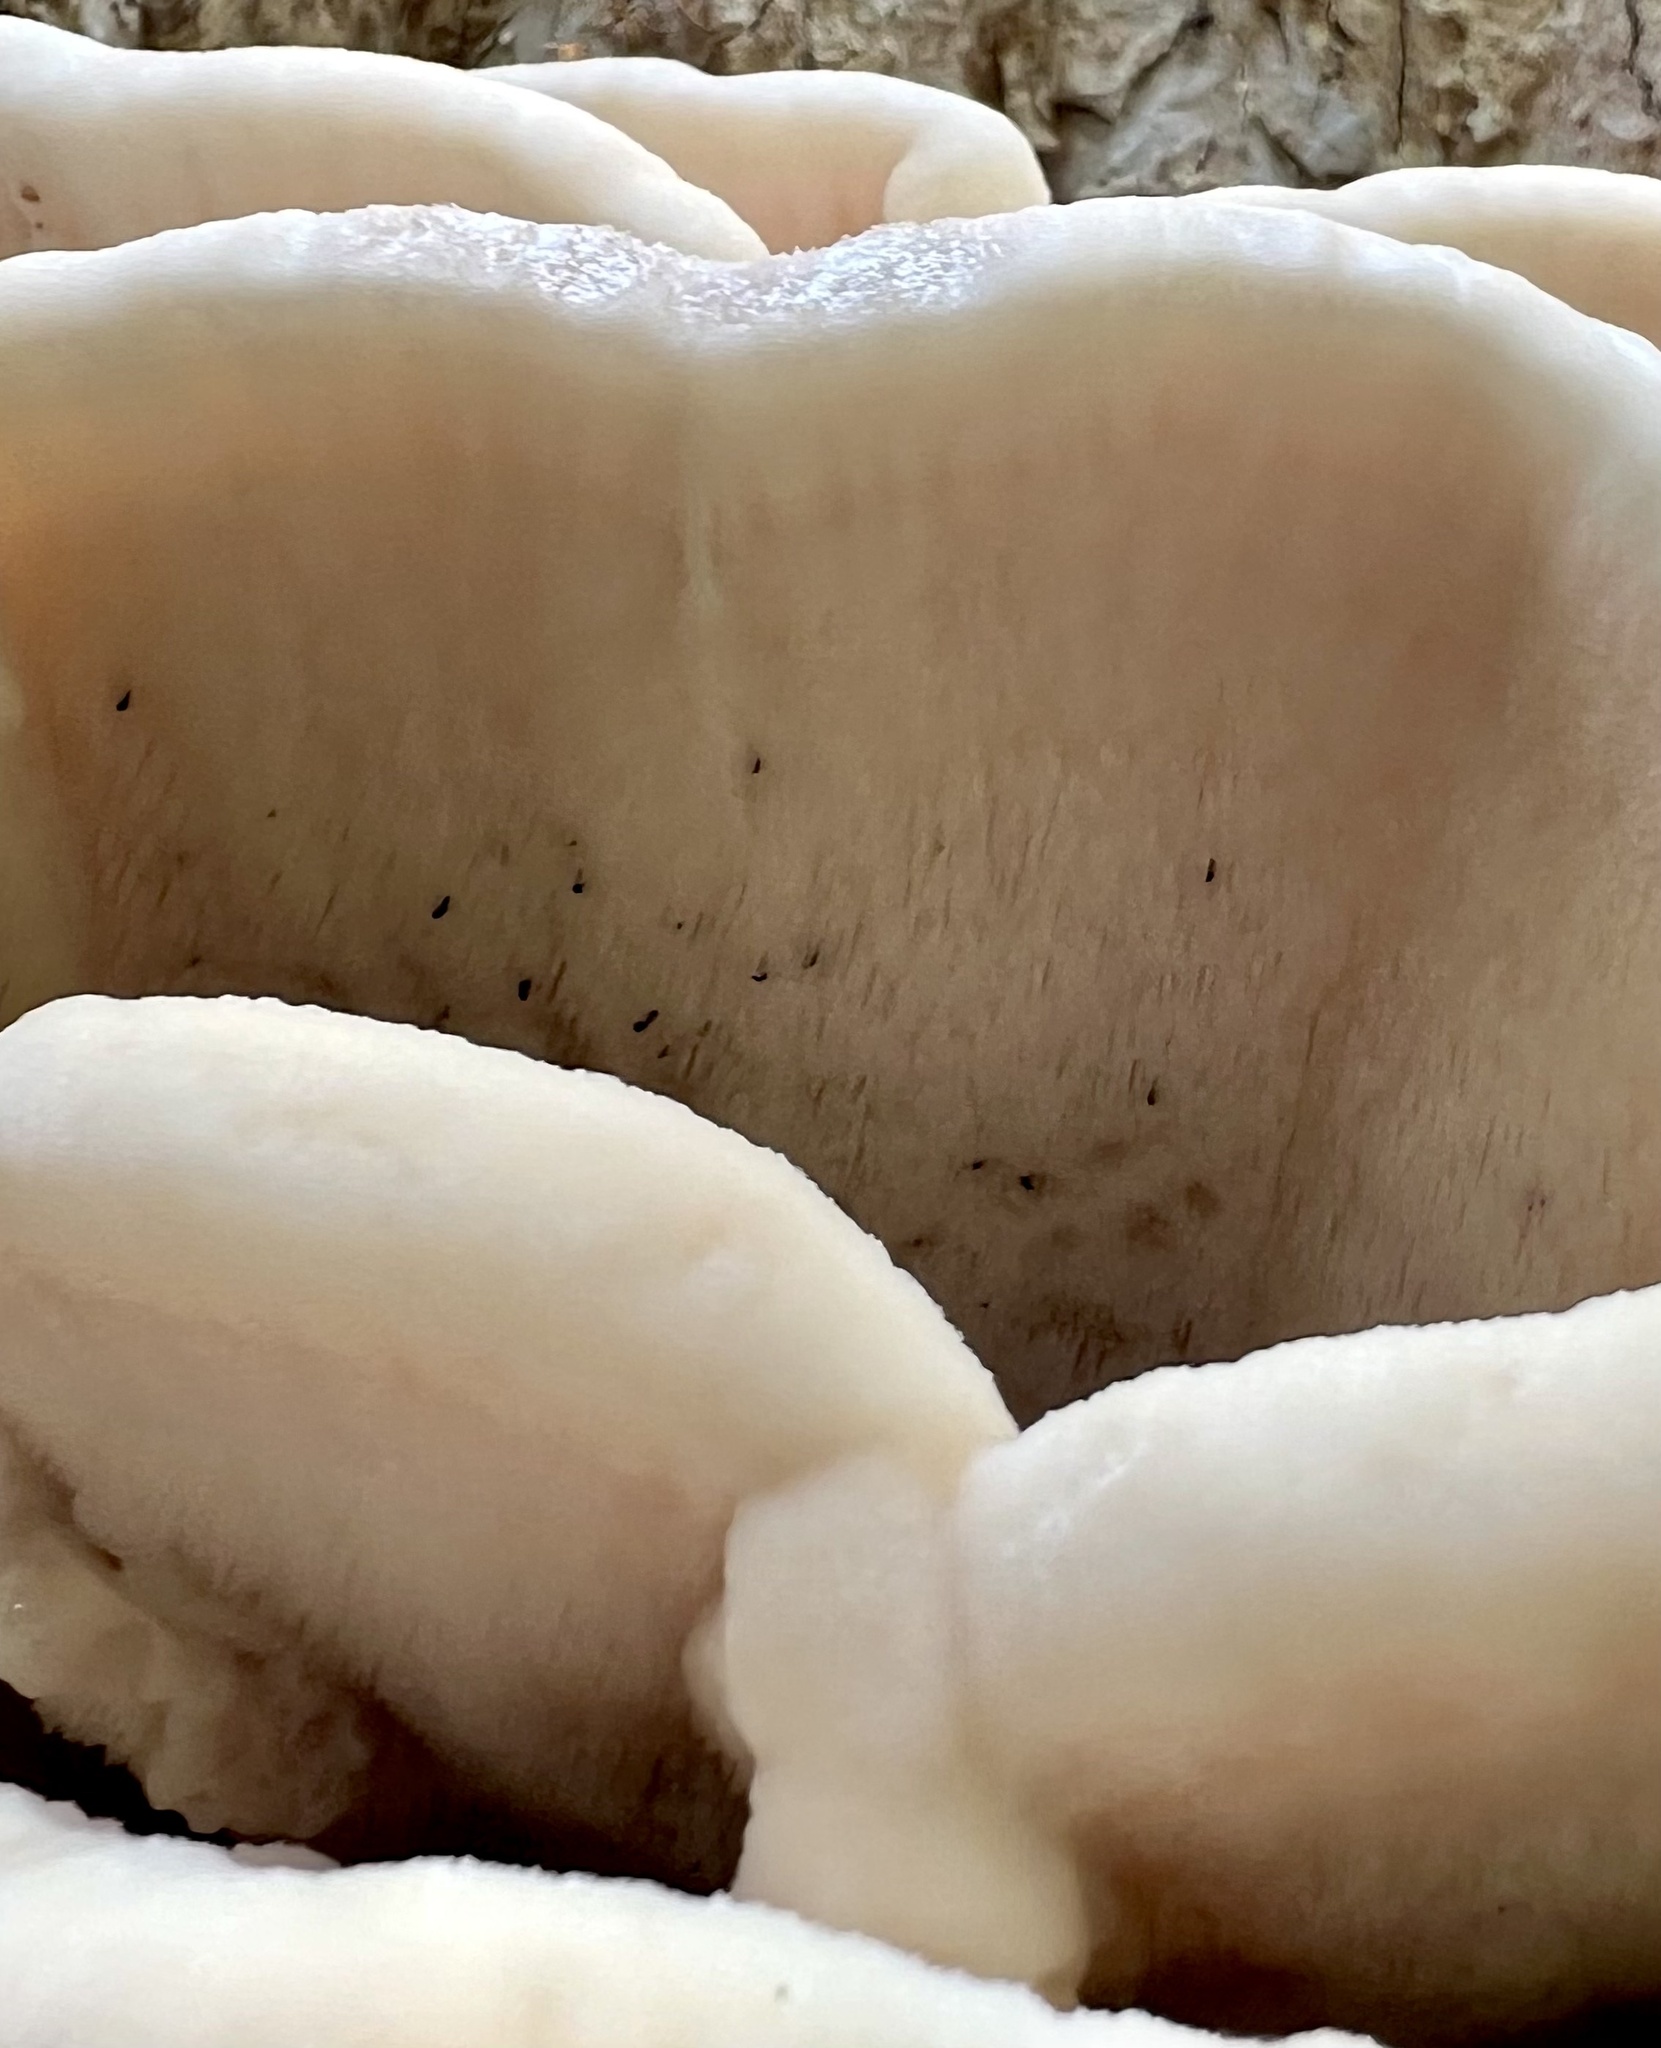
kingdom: Fungi
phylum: Basidiomycota
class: Agaricomycetes
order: Polyporales
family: Meruliaceae
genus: Climacodon
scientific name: Climacodon septentrionalis
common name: Northern tooth
